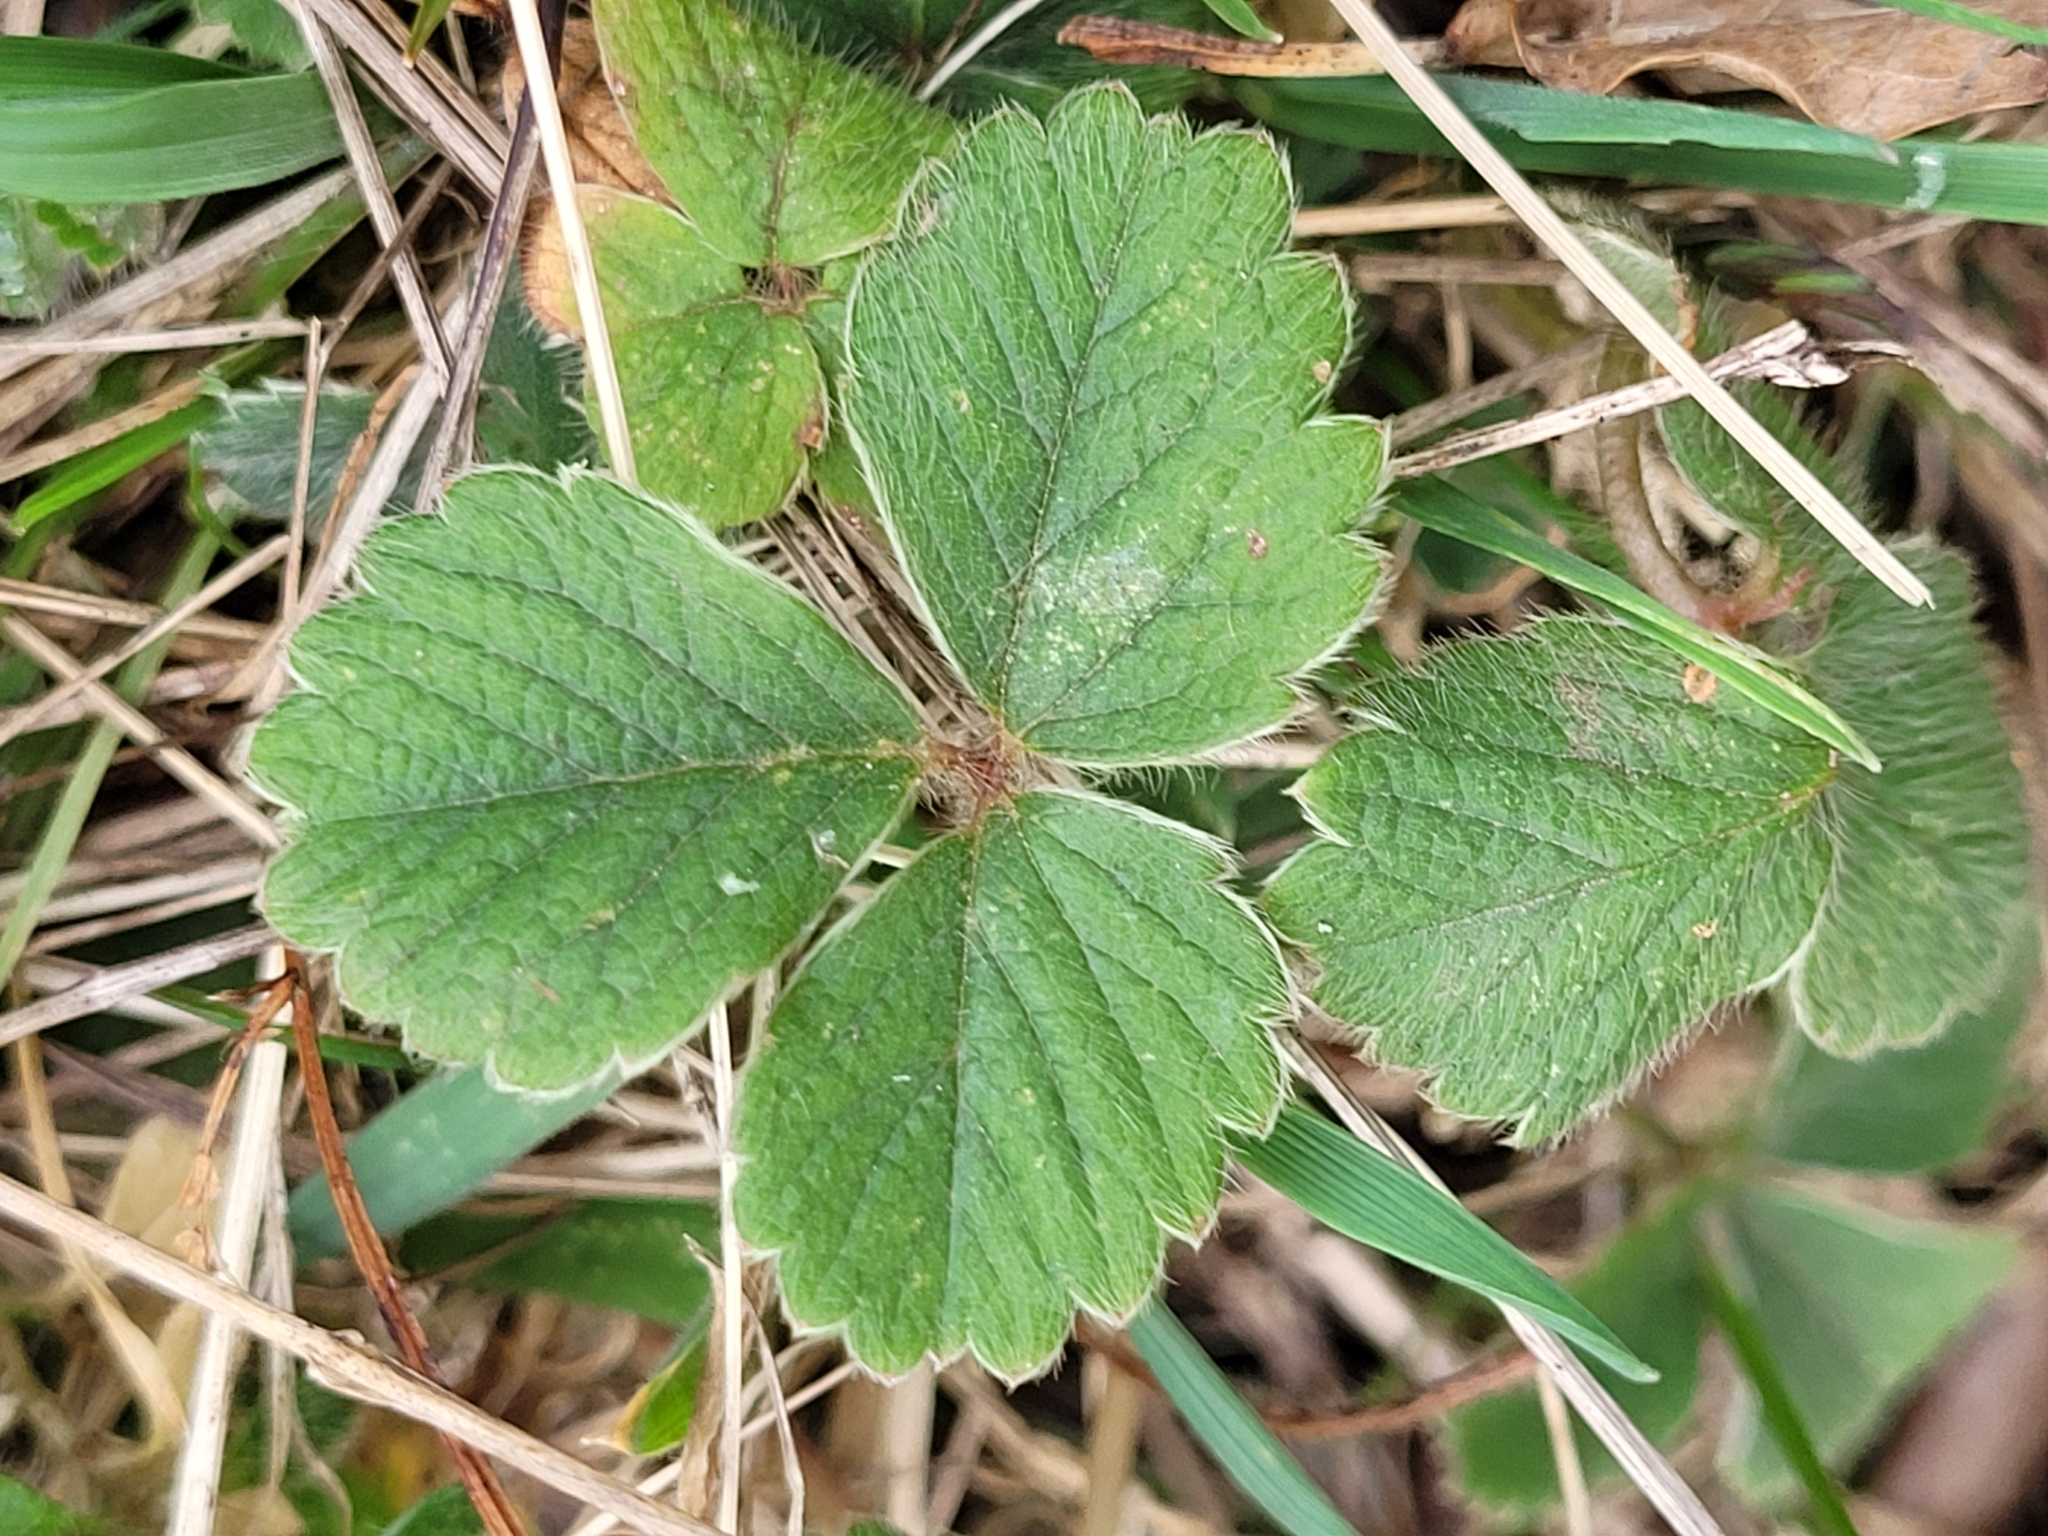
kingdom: Plantae
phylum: Tracheophyta
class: Magnoliopsida
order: Rosales
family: Rosaceae
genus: Potentilla
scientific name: Potentilla sterilis
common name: Barren strawberry
